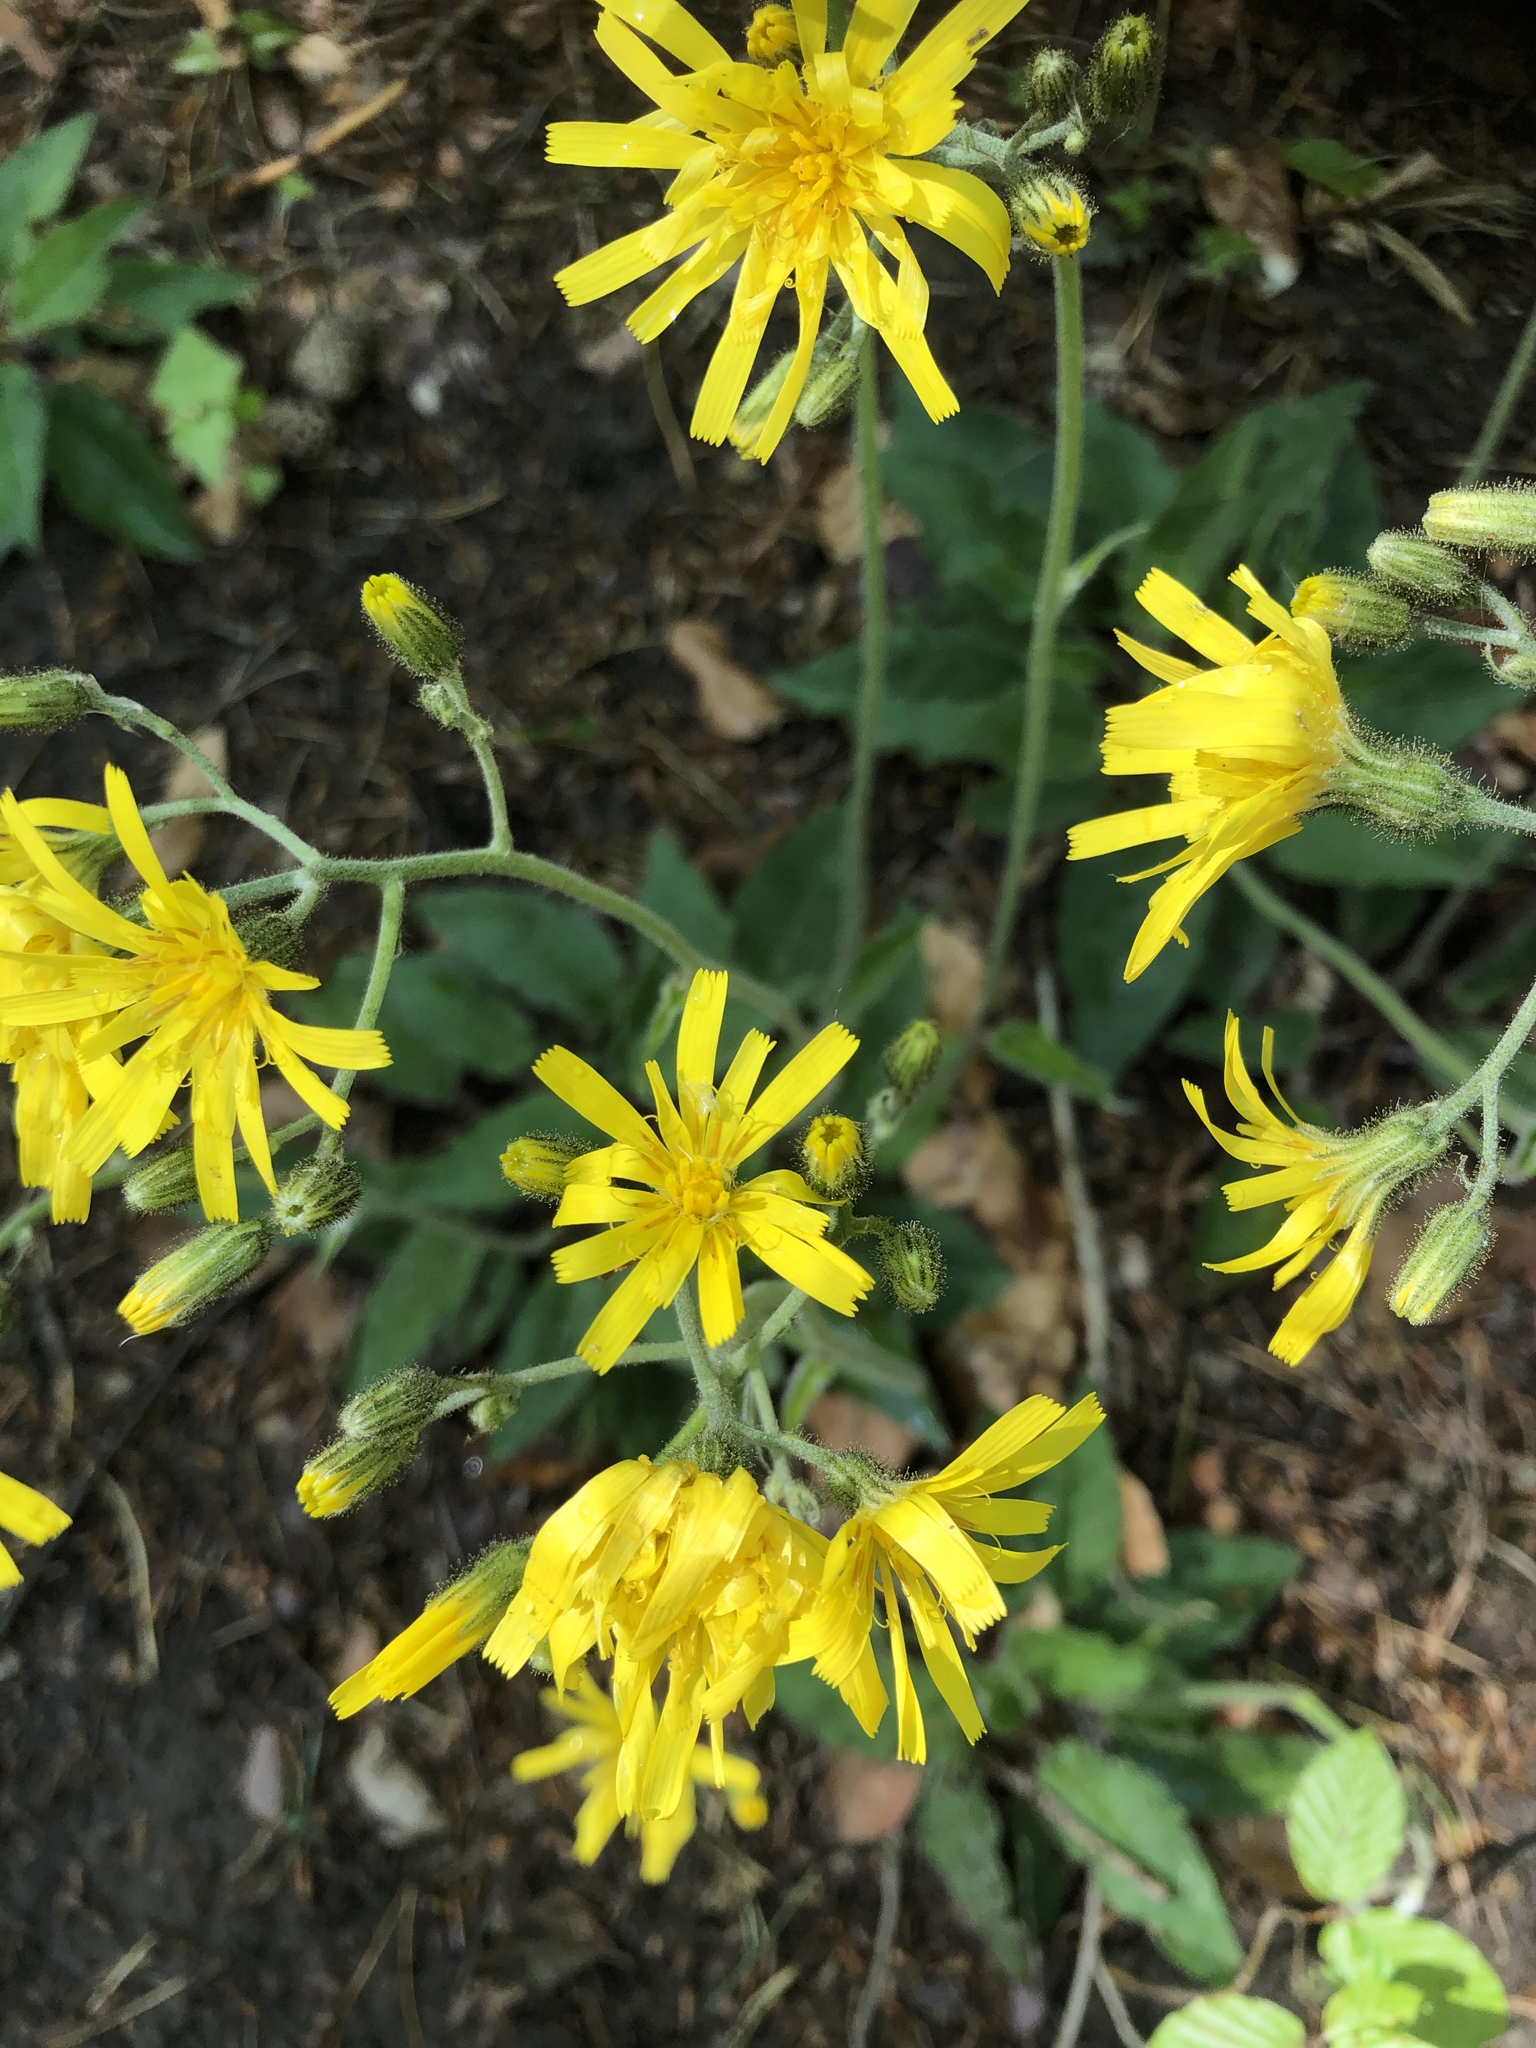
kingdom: Plantae
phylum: Tracheophyta
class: Magnoliopsida
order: Asterales
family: Asteraceae
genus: Hieracium
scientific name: Hieracium murorum
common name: Wall hawkweed
